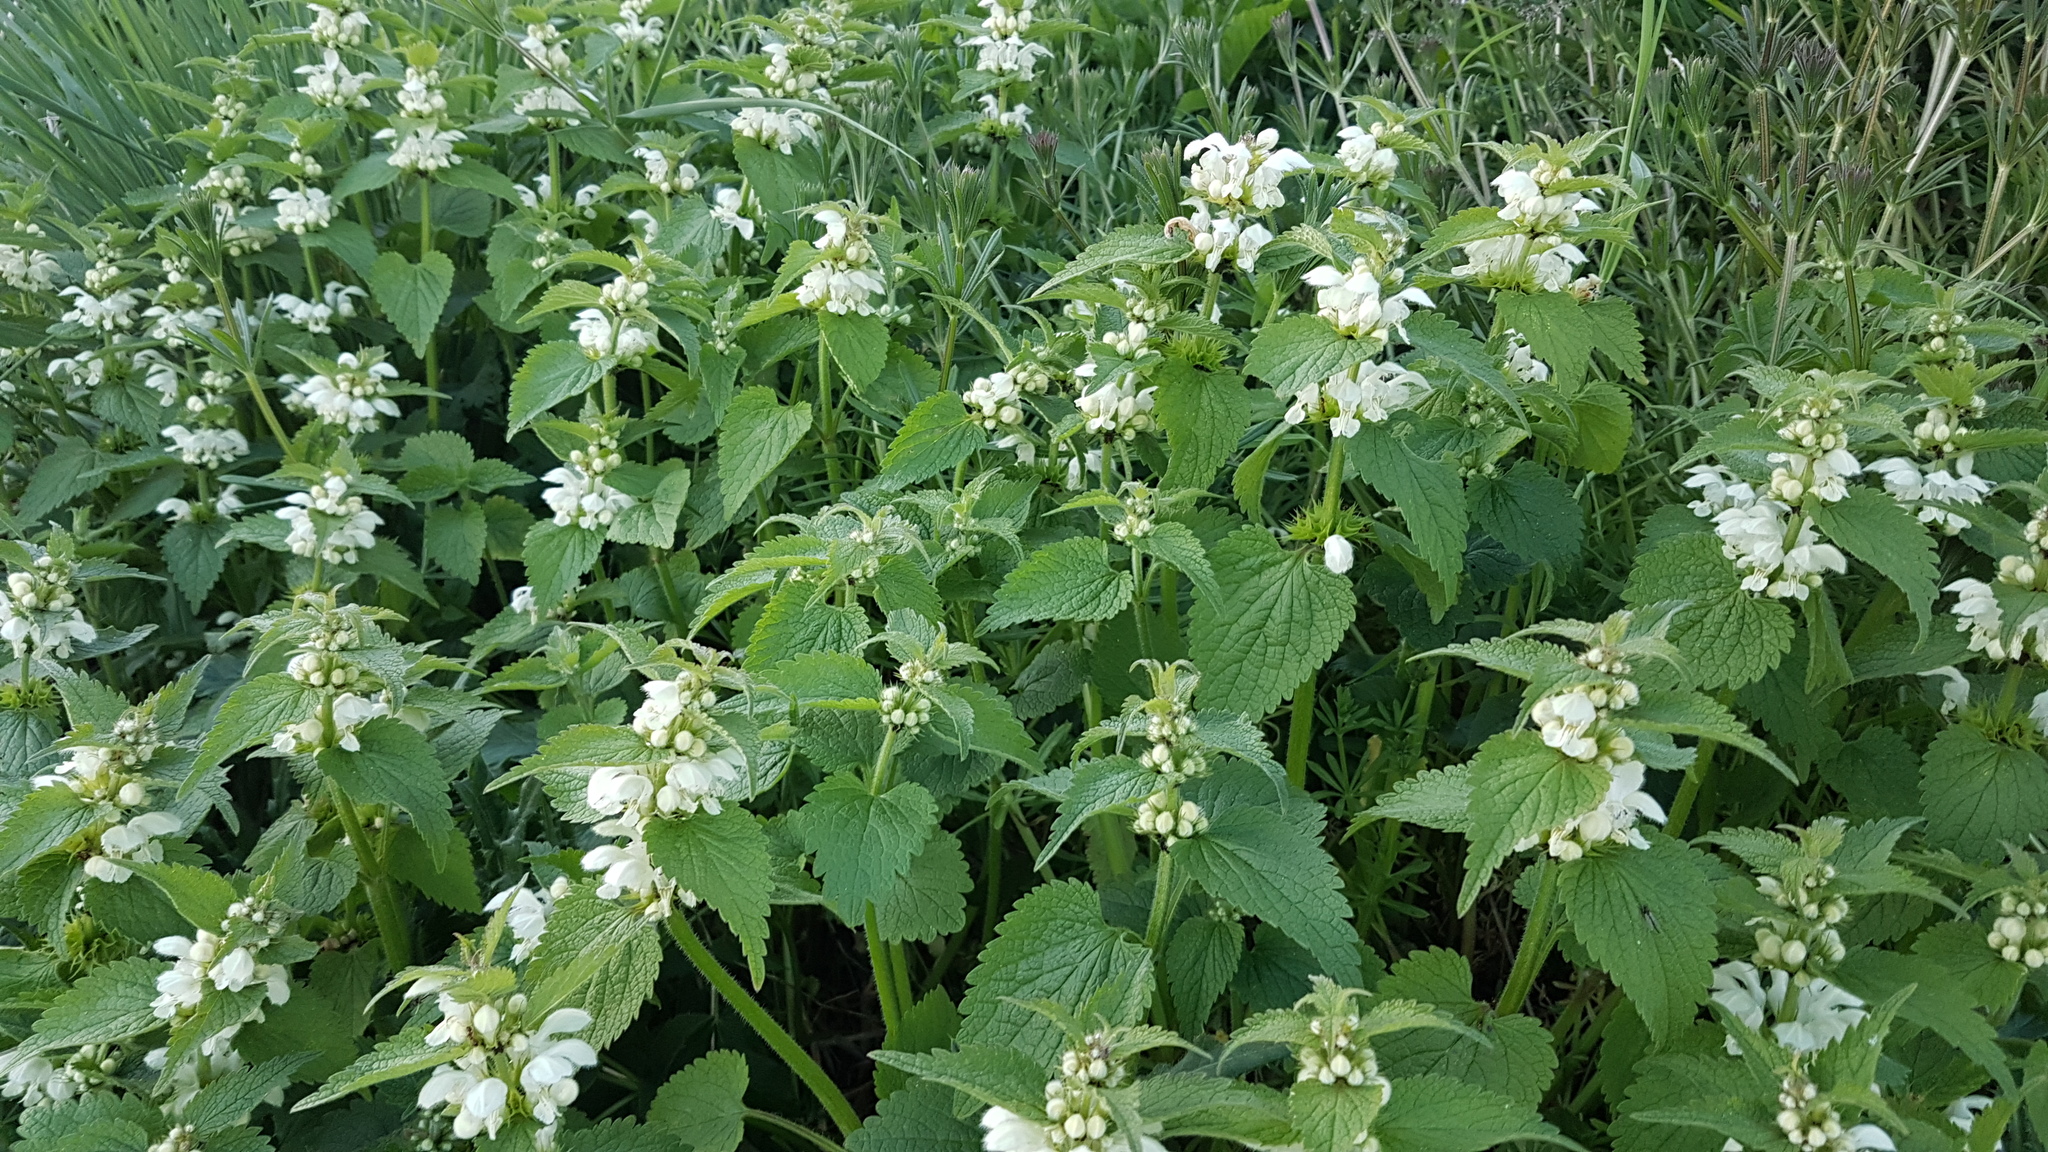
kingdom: Plantae
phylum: Tracheophyta
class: Magnoliopsida
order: Lamiales
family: Lamiaceae
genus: Lamium
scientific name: Lamium album
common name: White dead-nettle
